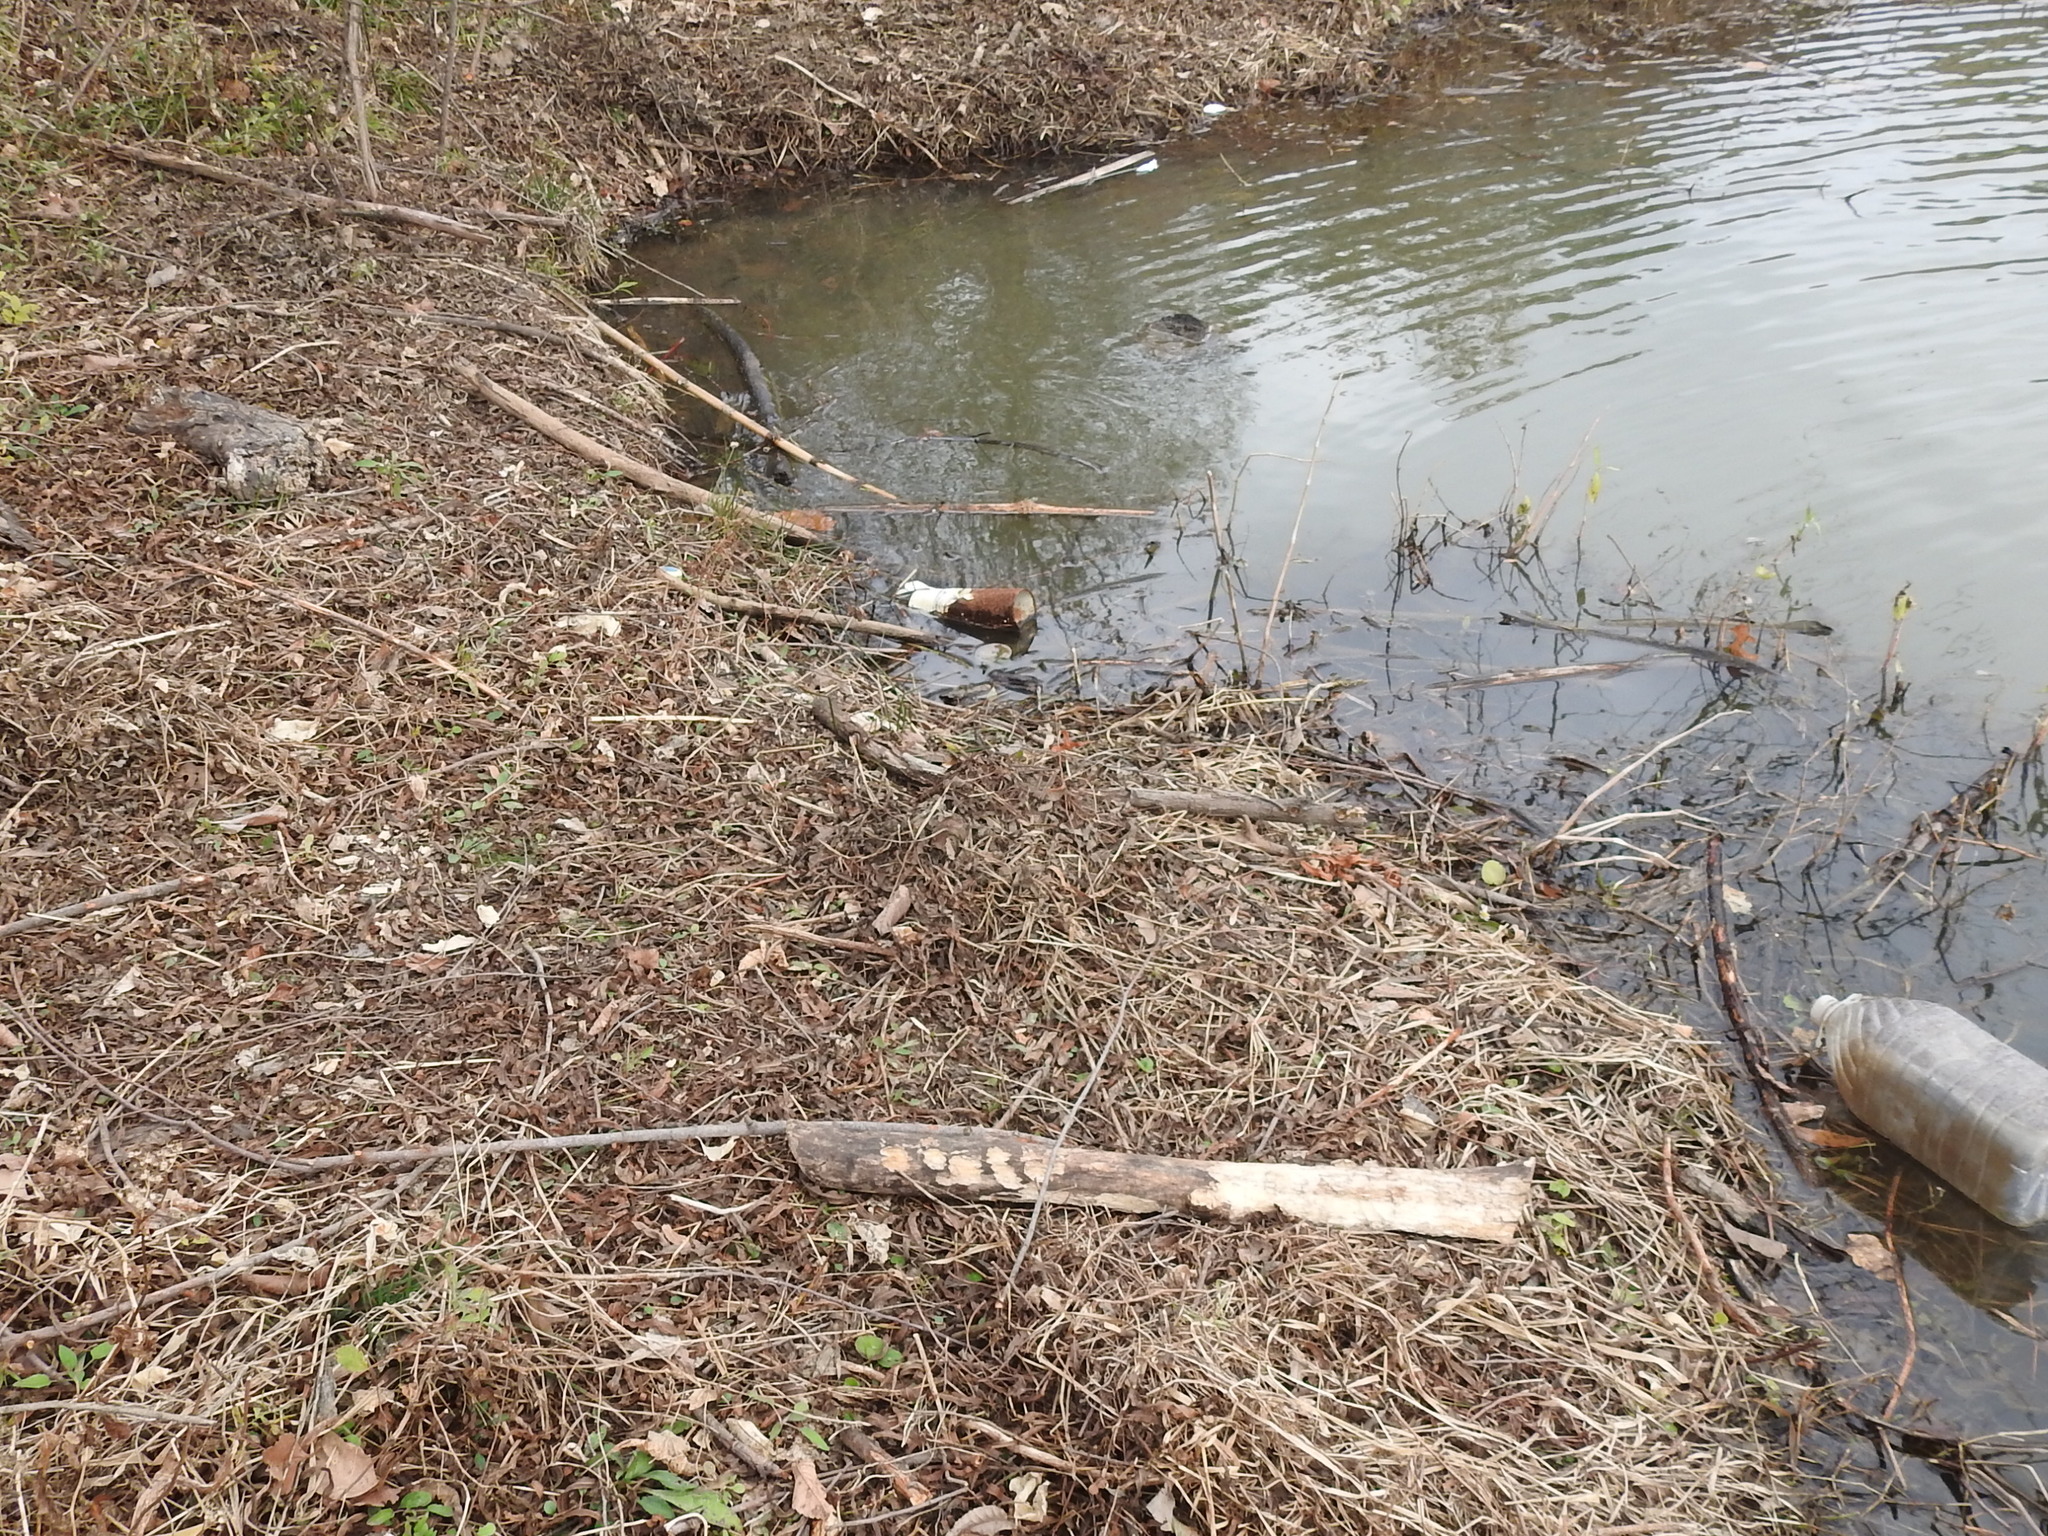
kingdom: Animalia
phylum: Chordata
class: Mammalia
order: Rodentia
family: Castoridae
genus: Castor
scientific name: Castor canadensis
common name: American beaver
